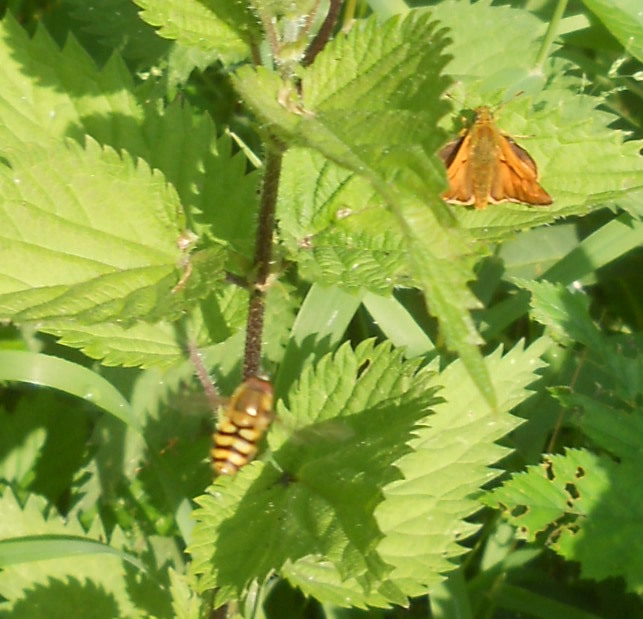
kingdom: Animalia
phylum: Arthropoda
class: Insecta
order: Diptera
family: Syrphidae
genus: Syrphus
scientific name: Syrphus
